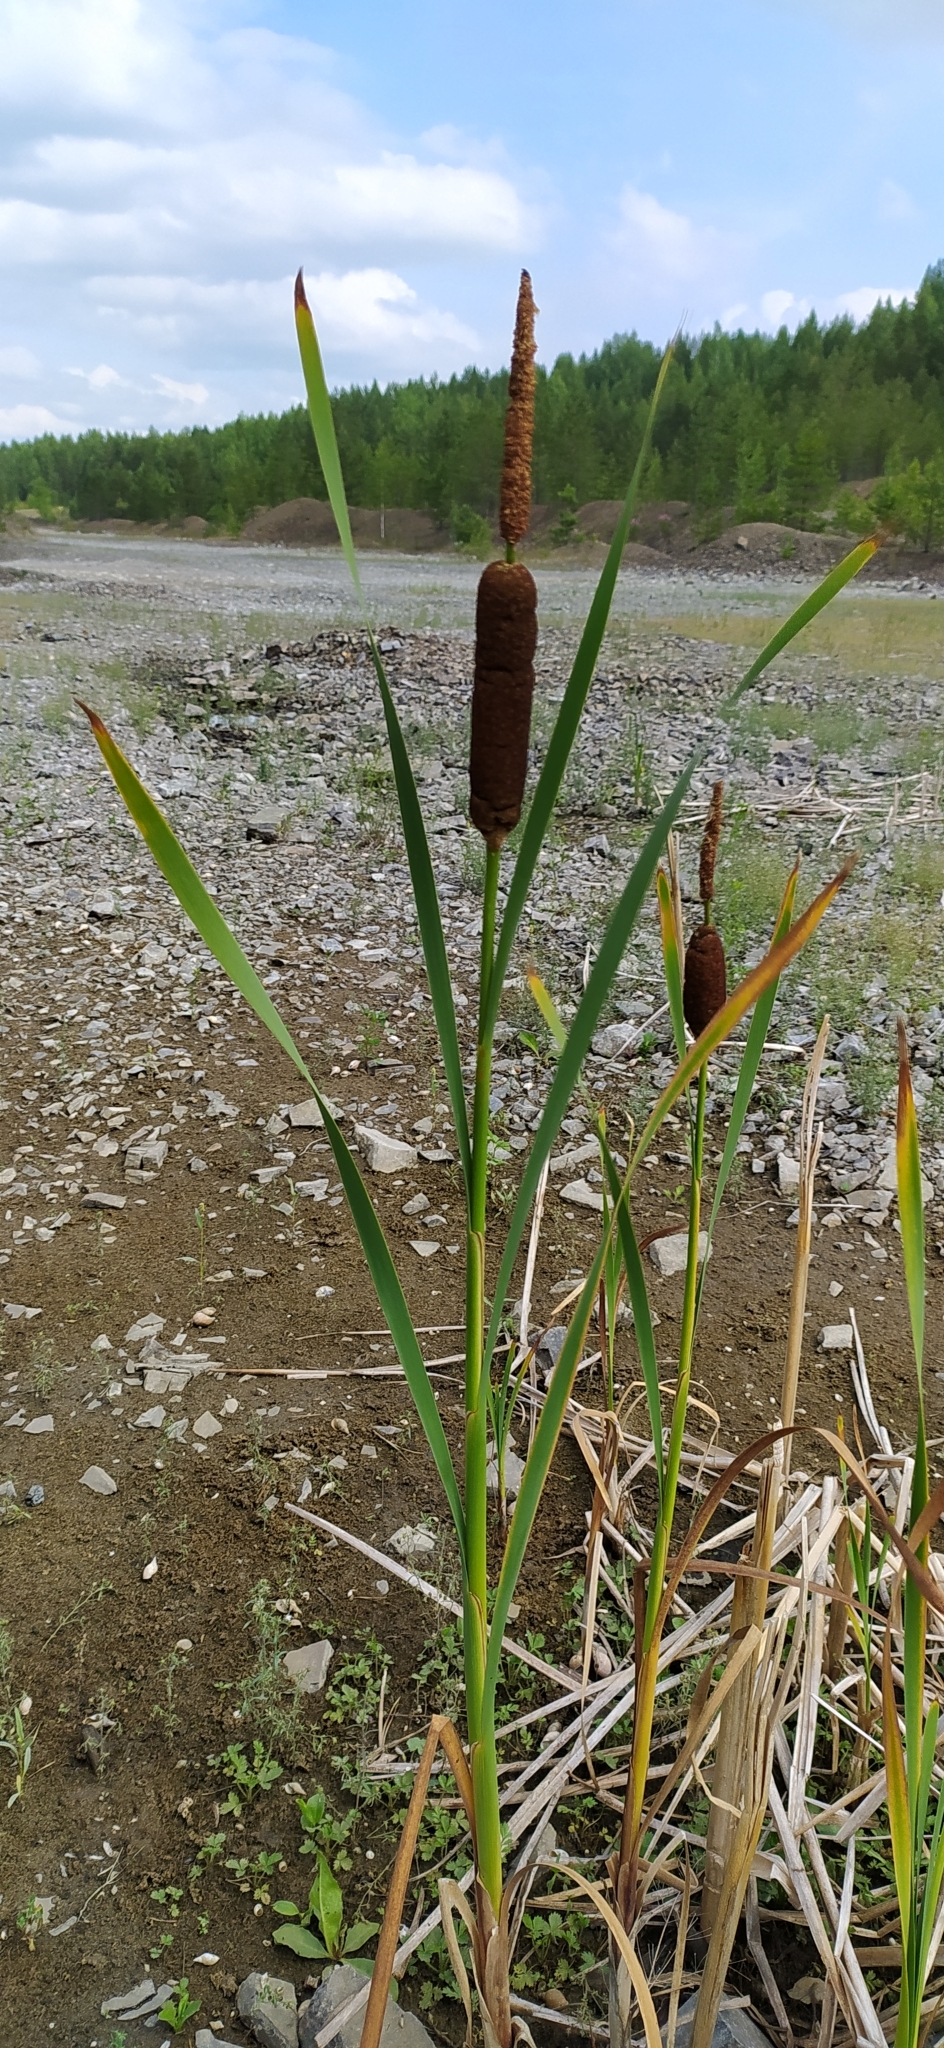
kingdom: Plantae
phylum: Tracheophyta
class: Liliopsida
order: Poales
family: Typhaceae
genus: Typha
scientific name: Typha latifolia
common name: Broadleaf cattail
